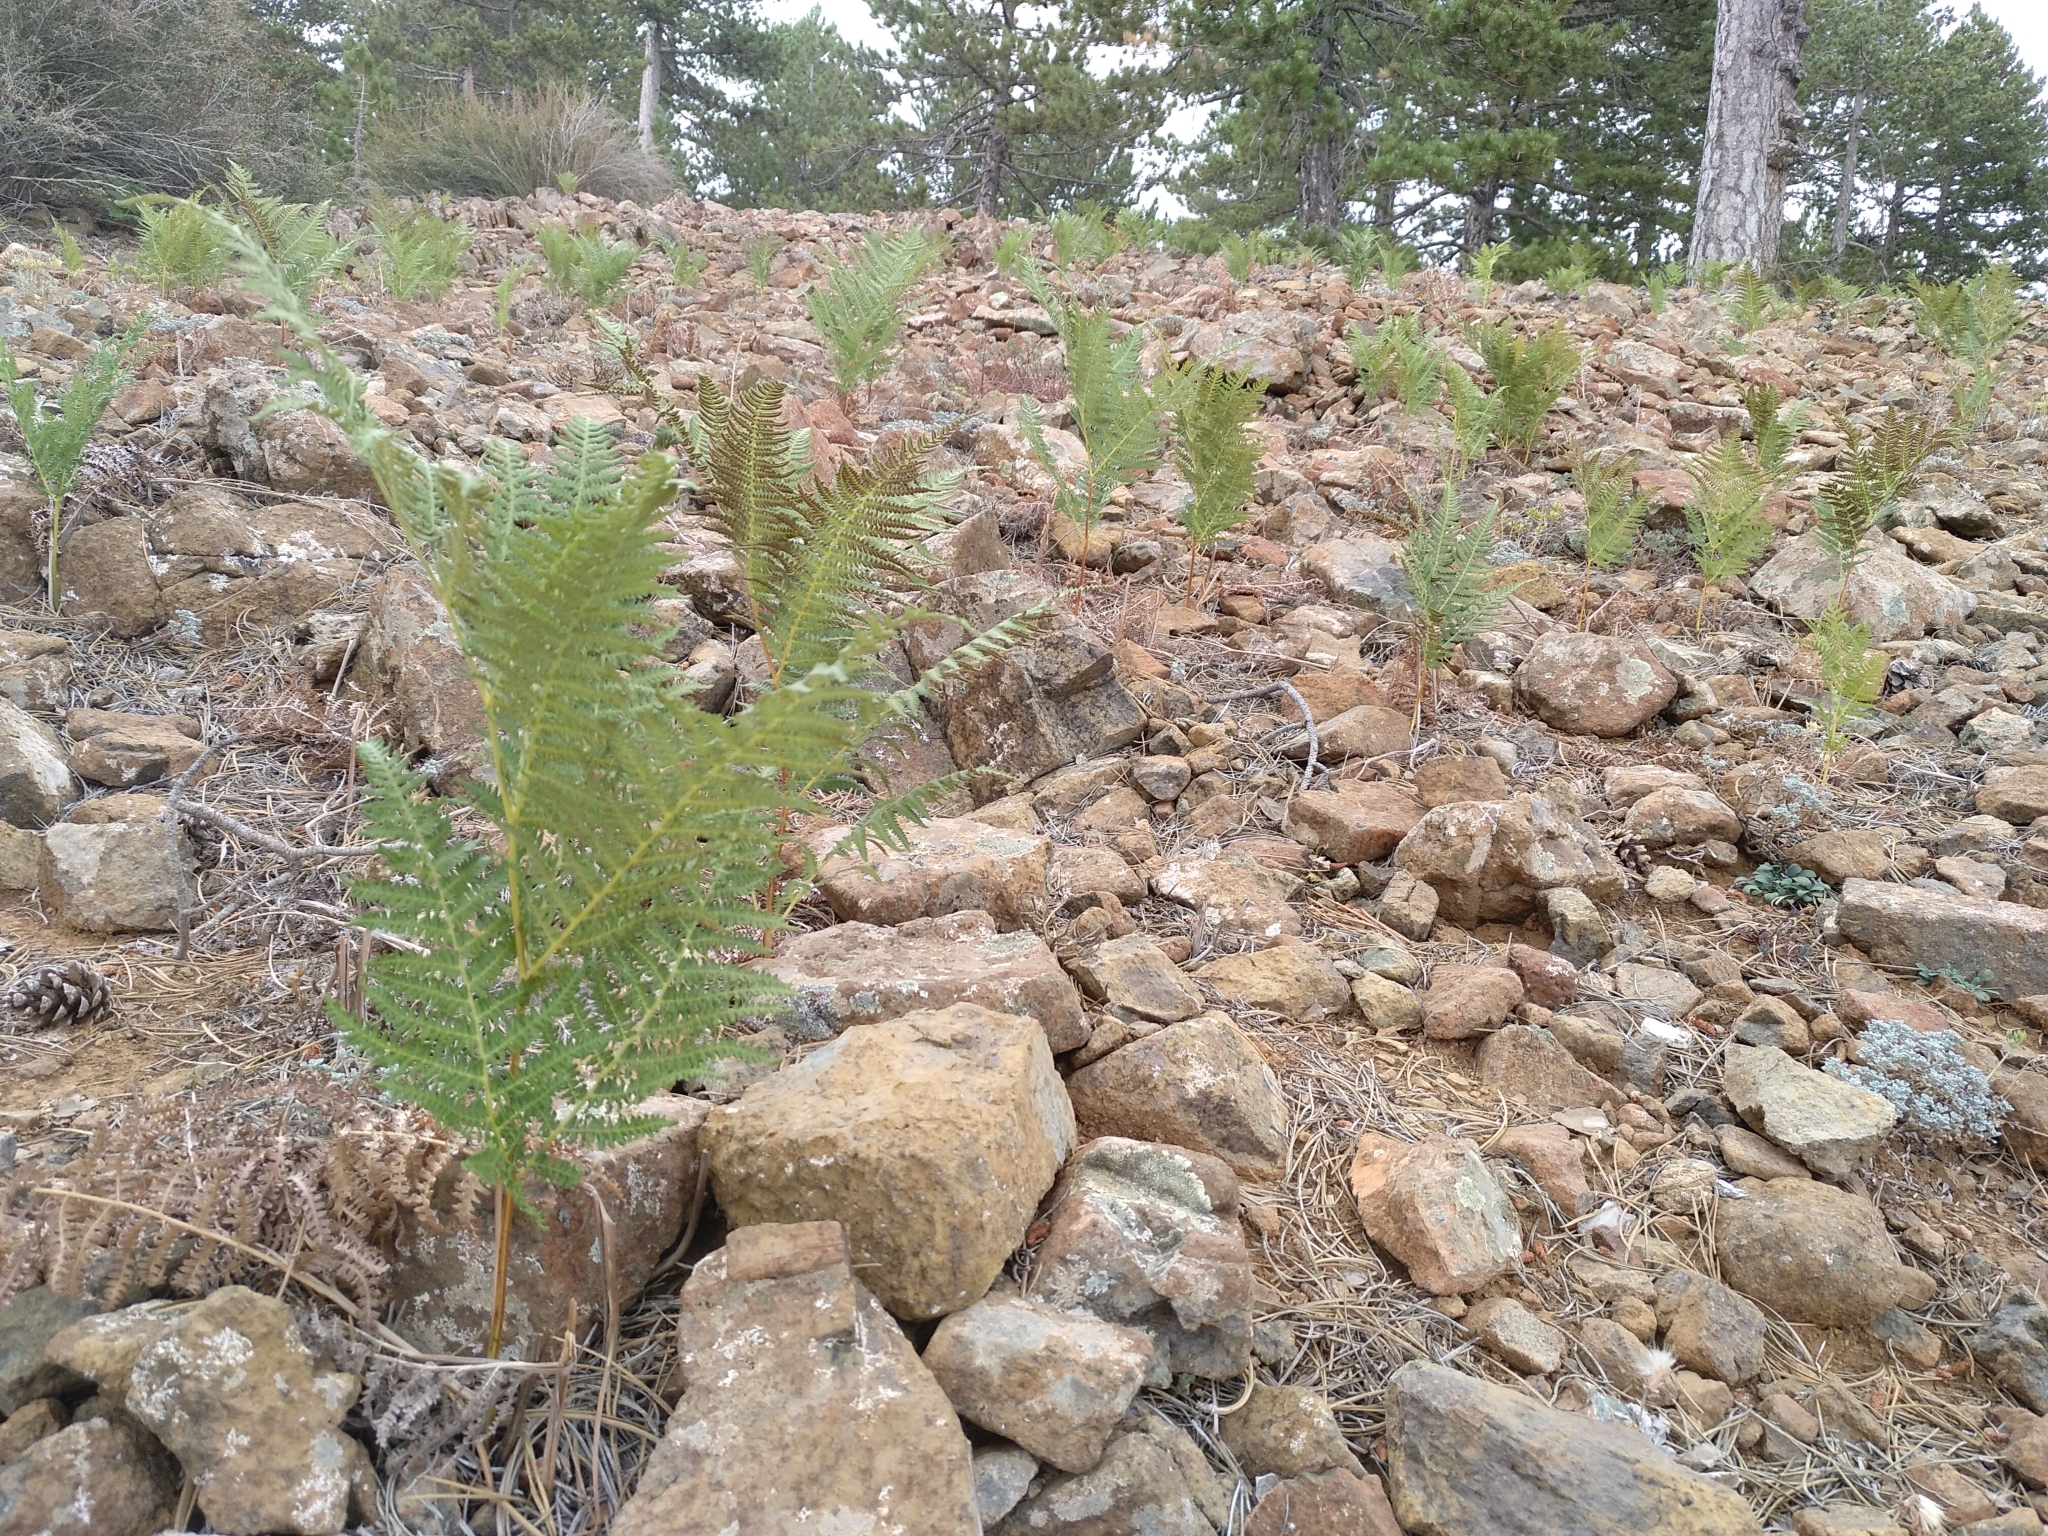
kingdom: Plantae
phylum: Tracheophyta
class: Polypodiopsida
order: Polypodiales
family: Dennstaedtiaceae
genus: Pteridium
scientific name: Pteridium aquilinum
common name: Bracken
